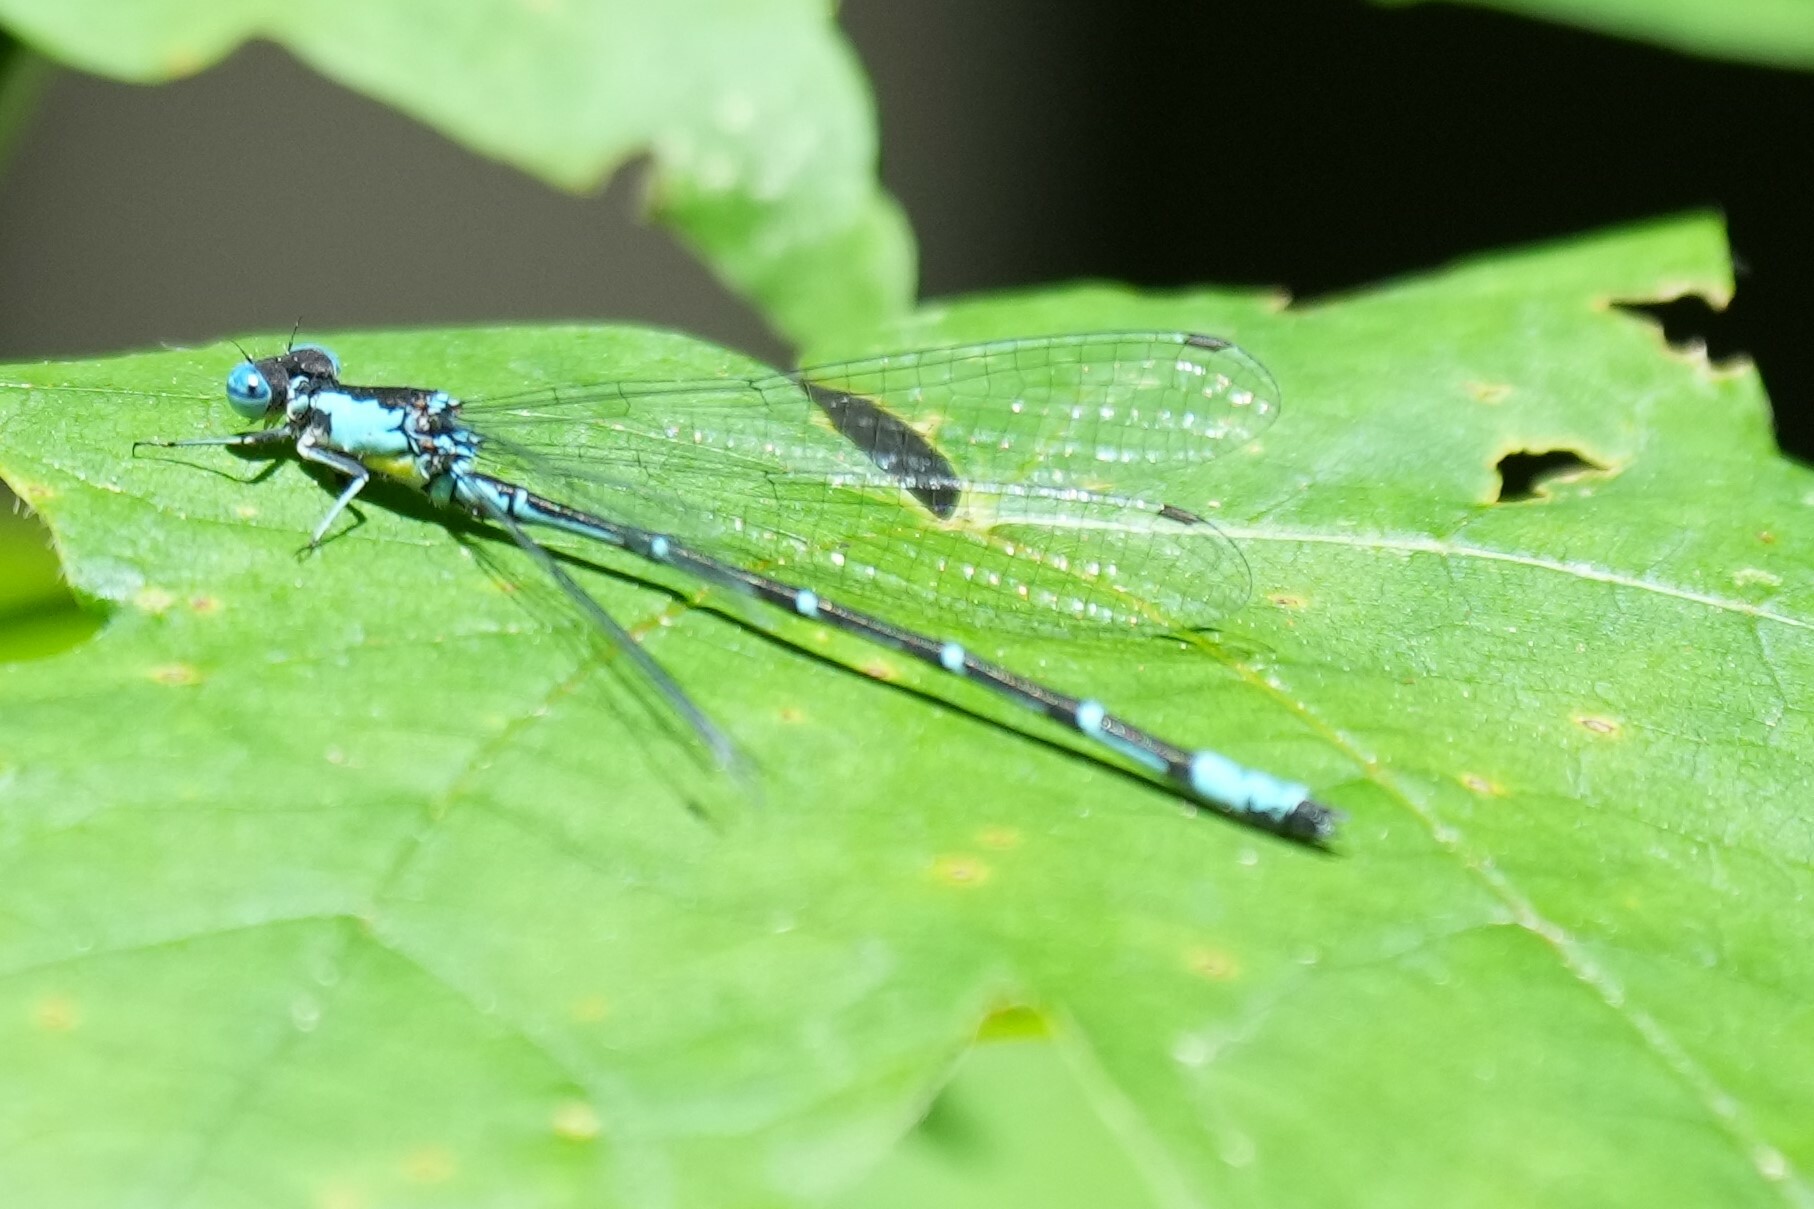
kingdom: Animalia
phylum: Arthropoda
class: Insecta
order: Odonata
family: Coenagrionidae
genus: Chromagrion
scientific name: Chromagrion conditum
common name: Aurora damsel
